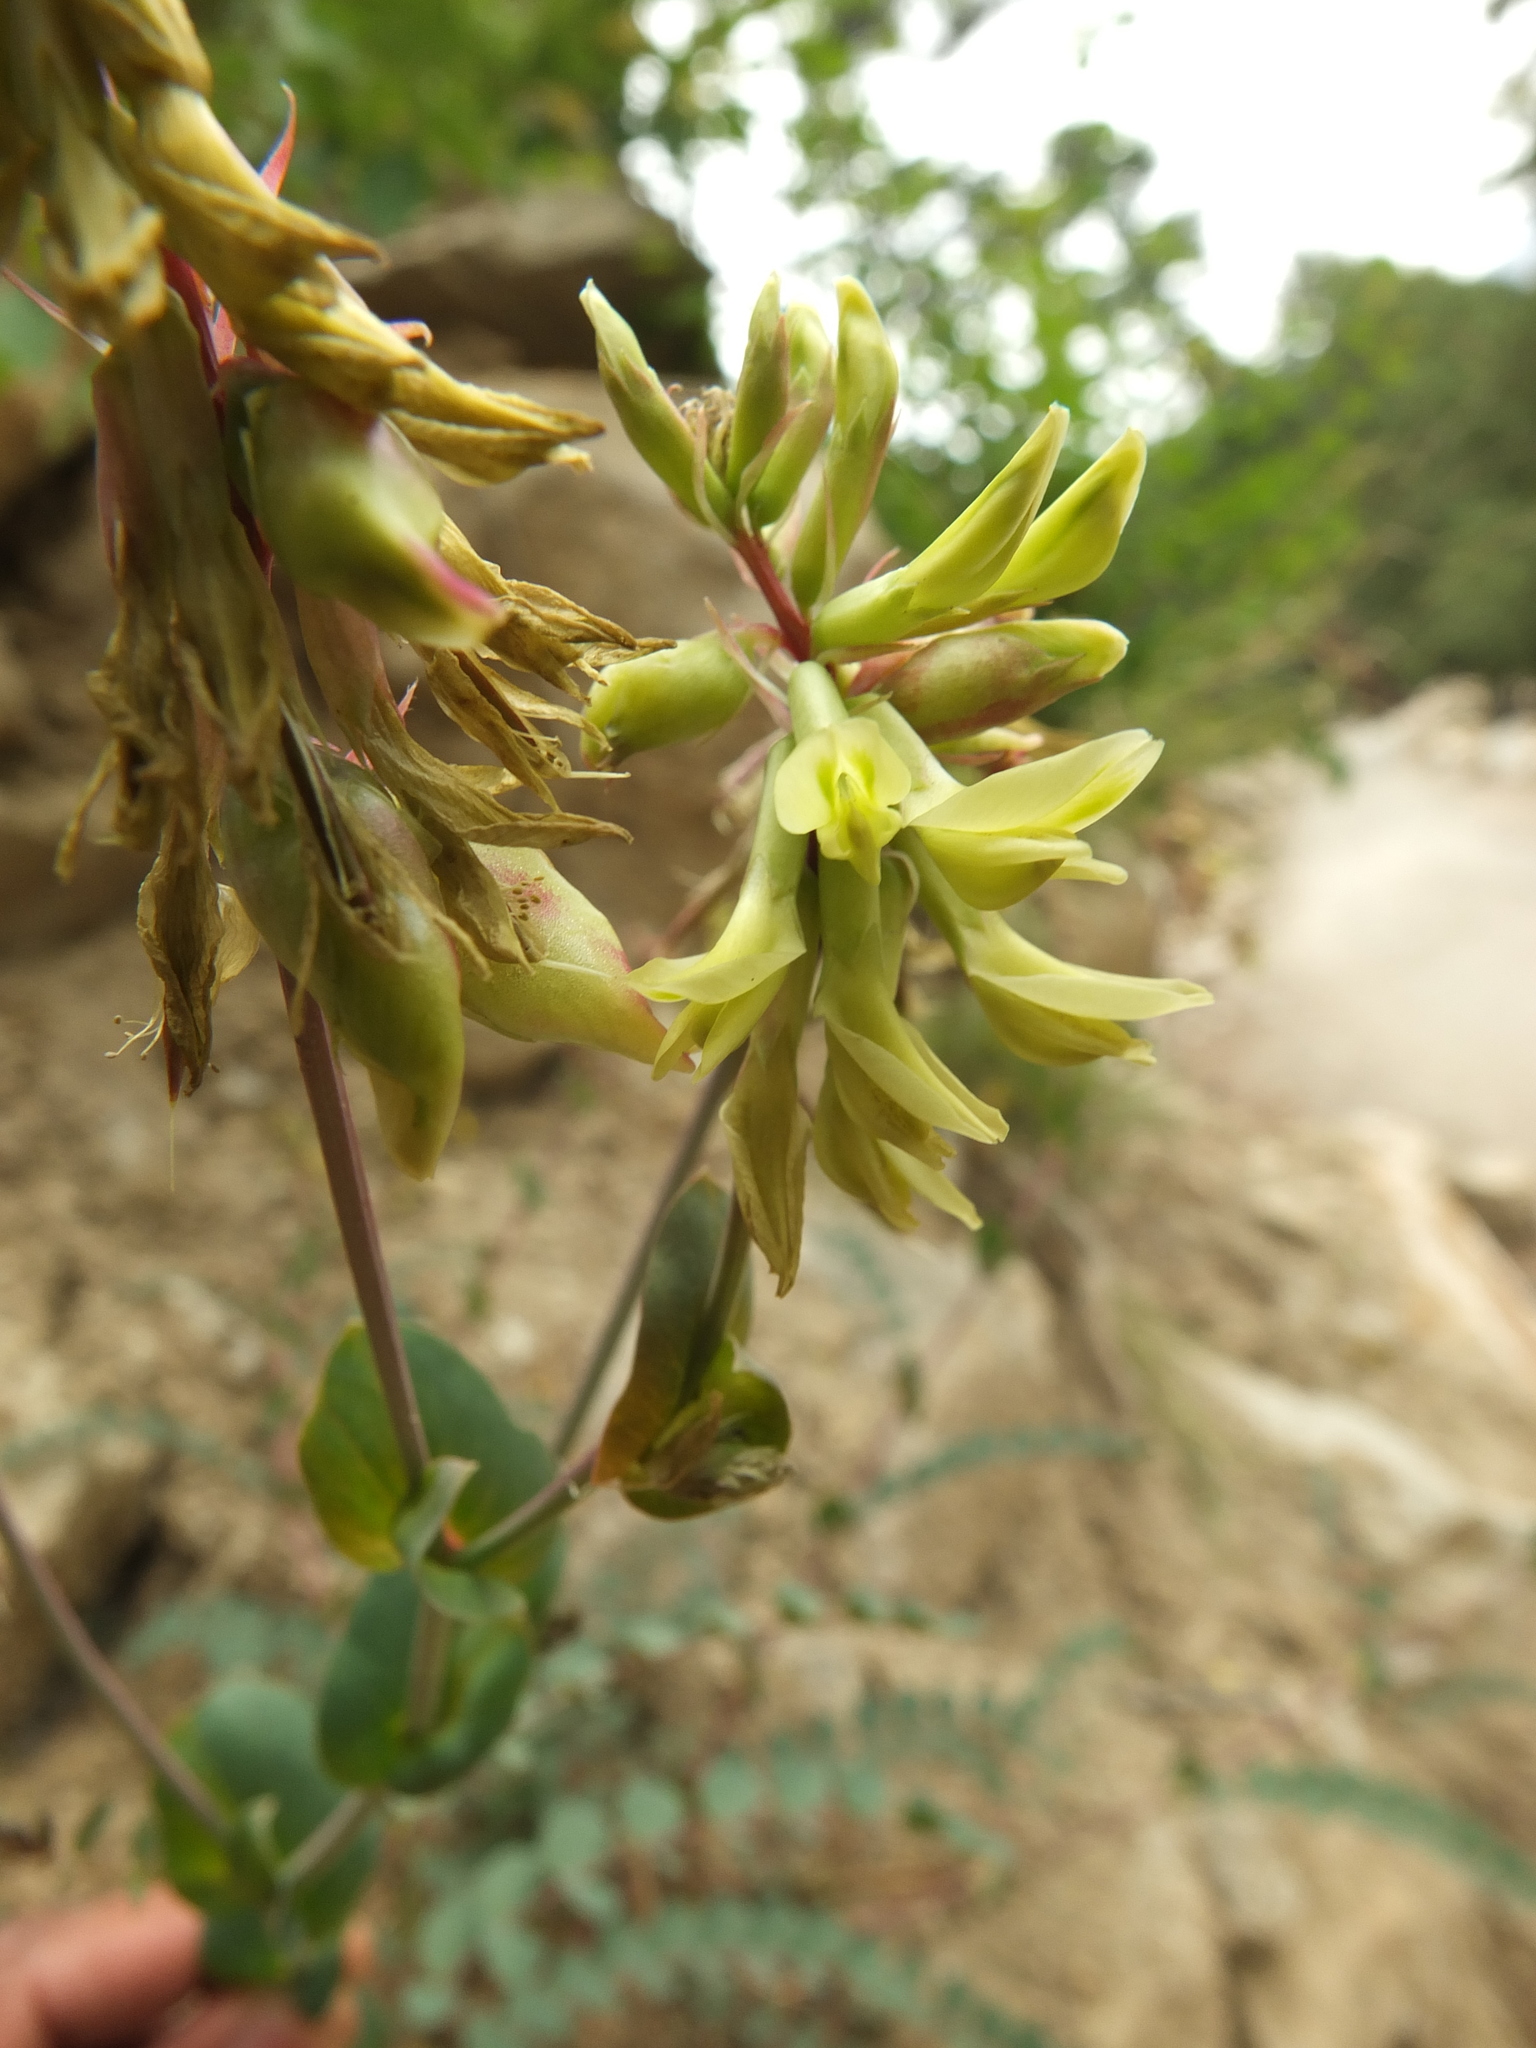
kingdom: Plantae
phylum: Tracheophyta
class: Magnoliopsida
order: Fabales
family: Fabaceae
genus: Astragalus
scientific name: Astragalus graveolens
